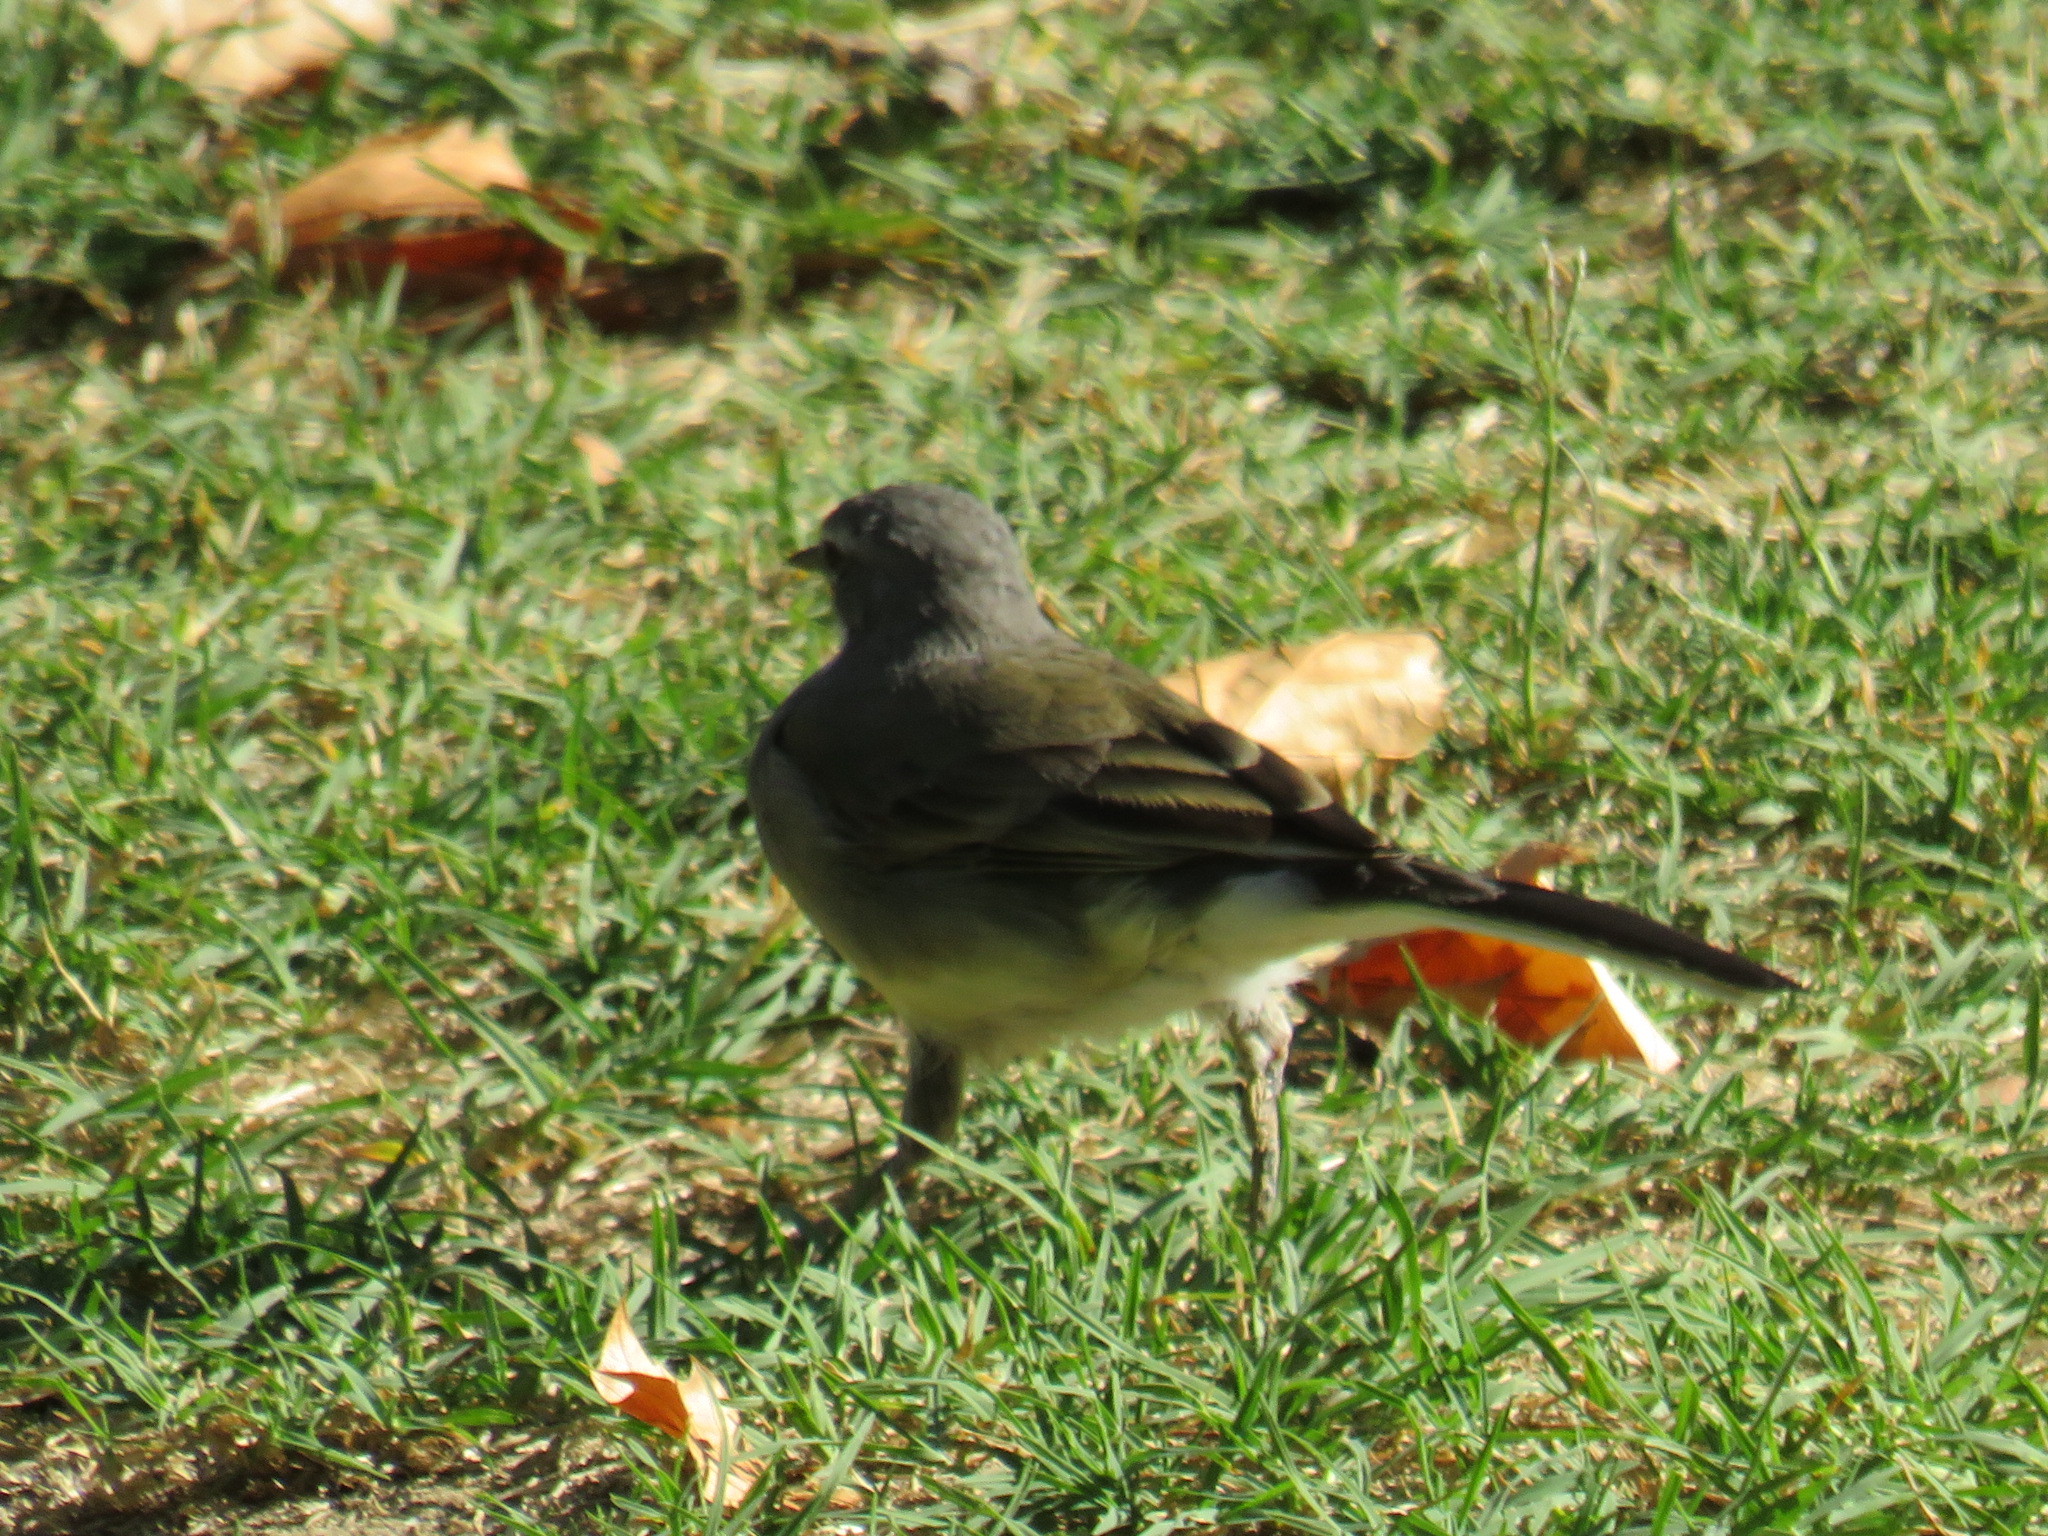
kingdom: Animalia
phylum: Chordata
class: Aves
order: Passeriformes
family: Motacillidae
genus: Motacilla
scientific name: Motacilla capensis
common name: Cape wagtail
